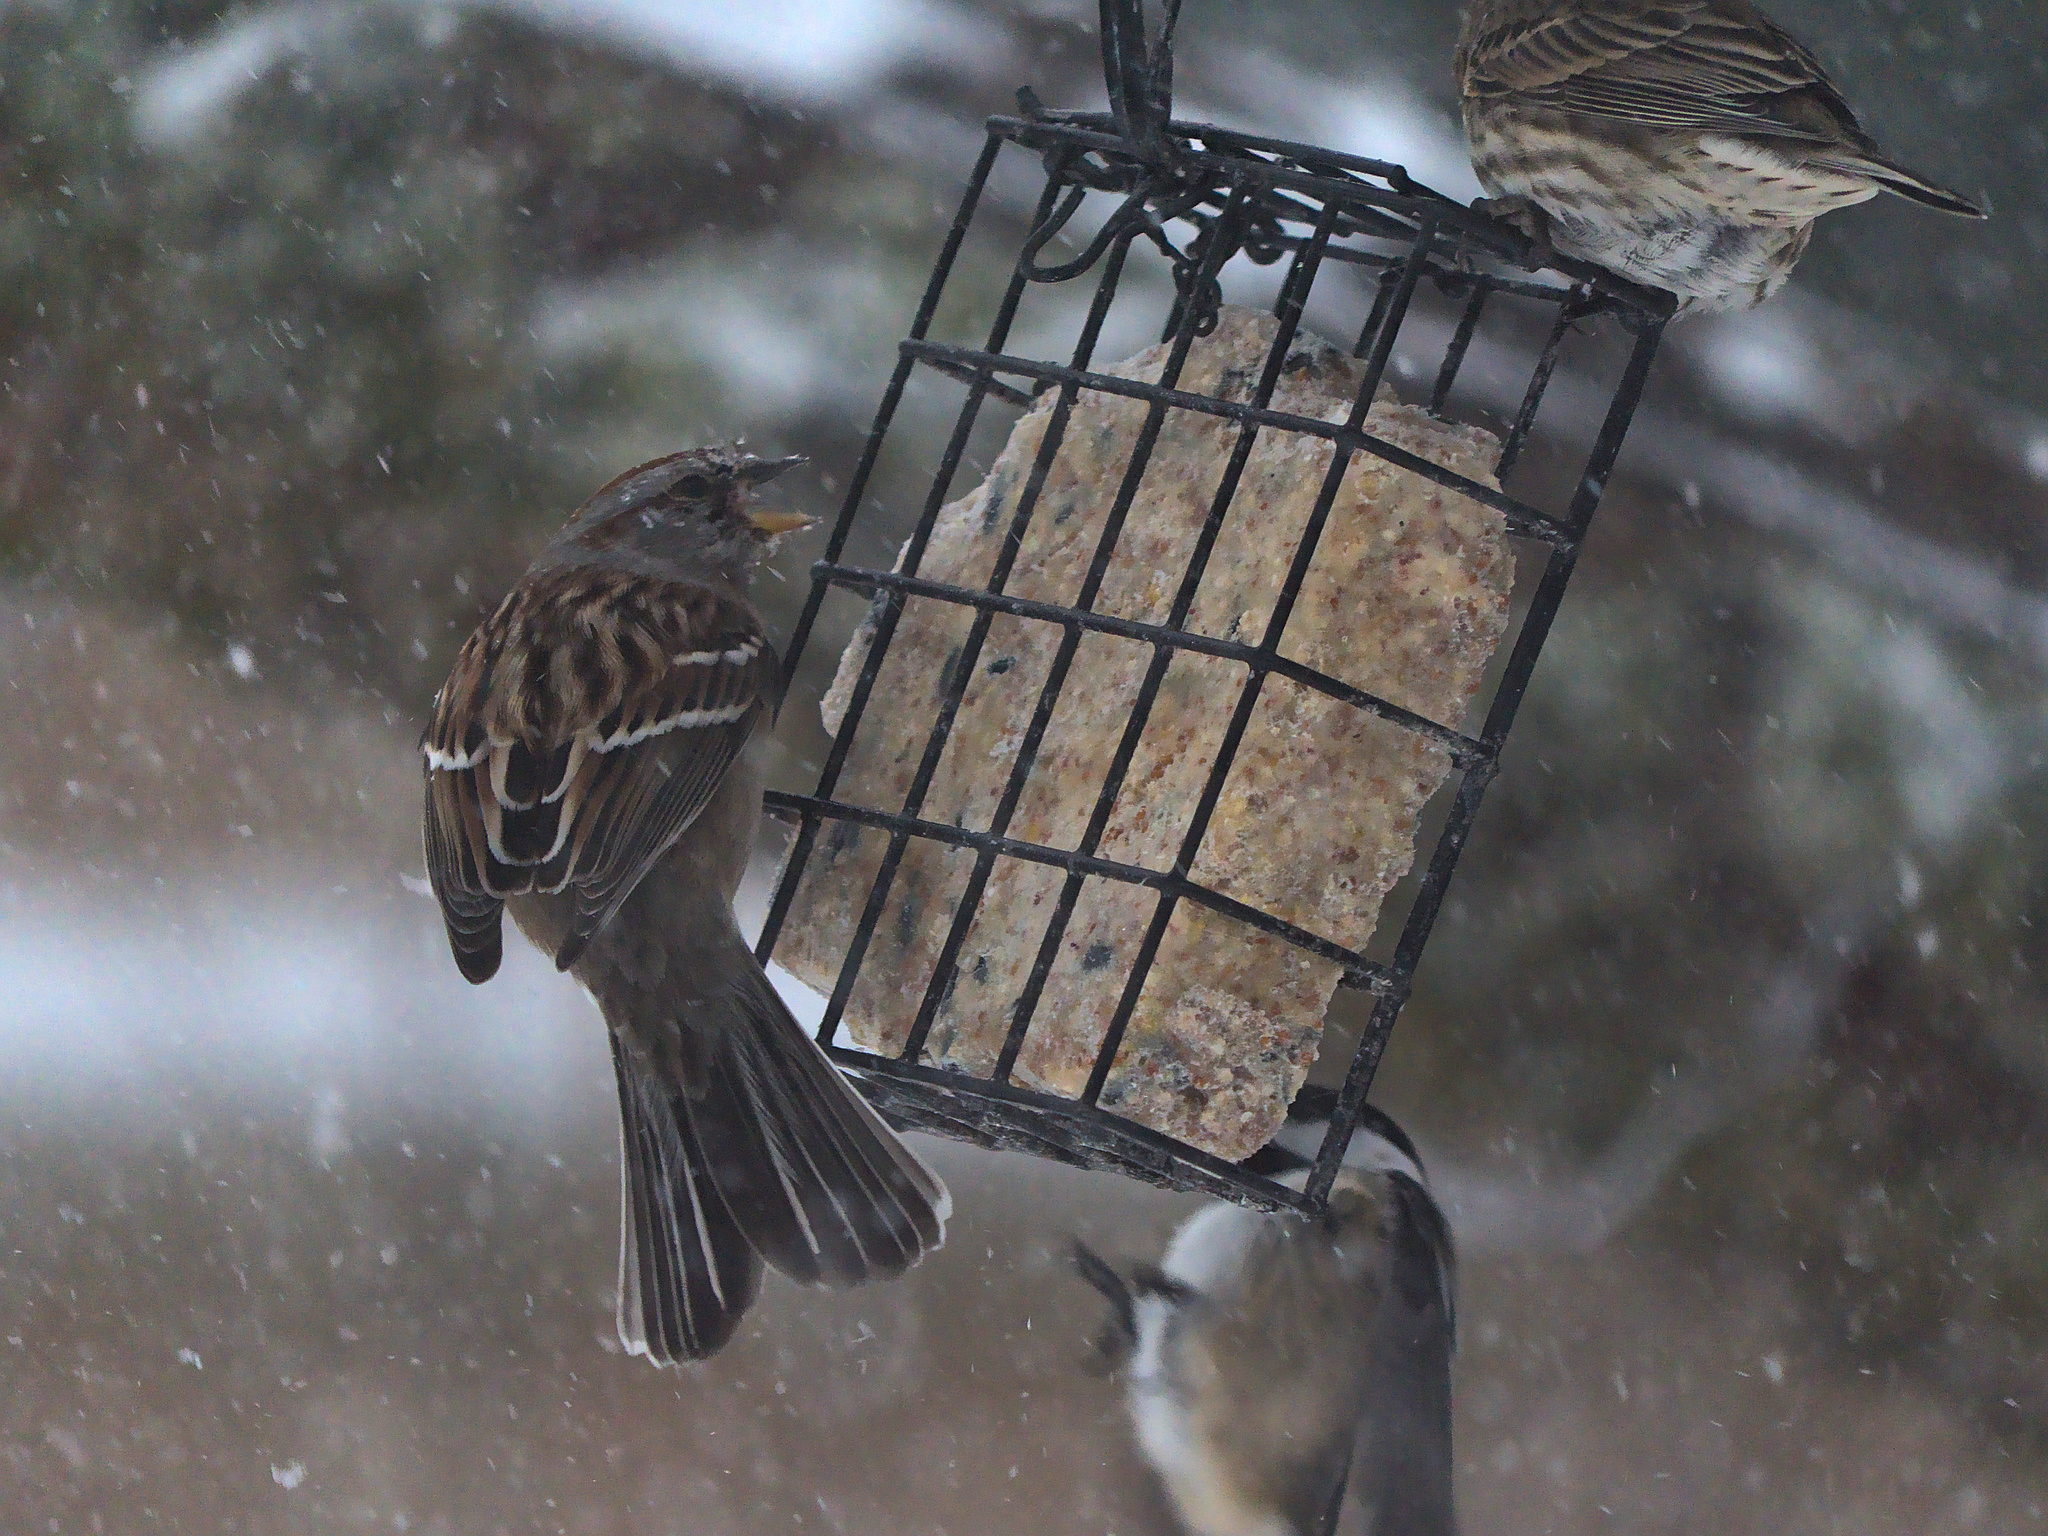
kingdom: Animalia
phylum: Chordata
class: Aves
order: Passeriformes
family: Passerellidae
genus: Spizelloides
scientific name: Spizelloides arborea
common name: American tree sparrow
